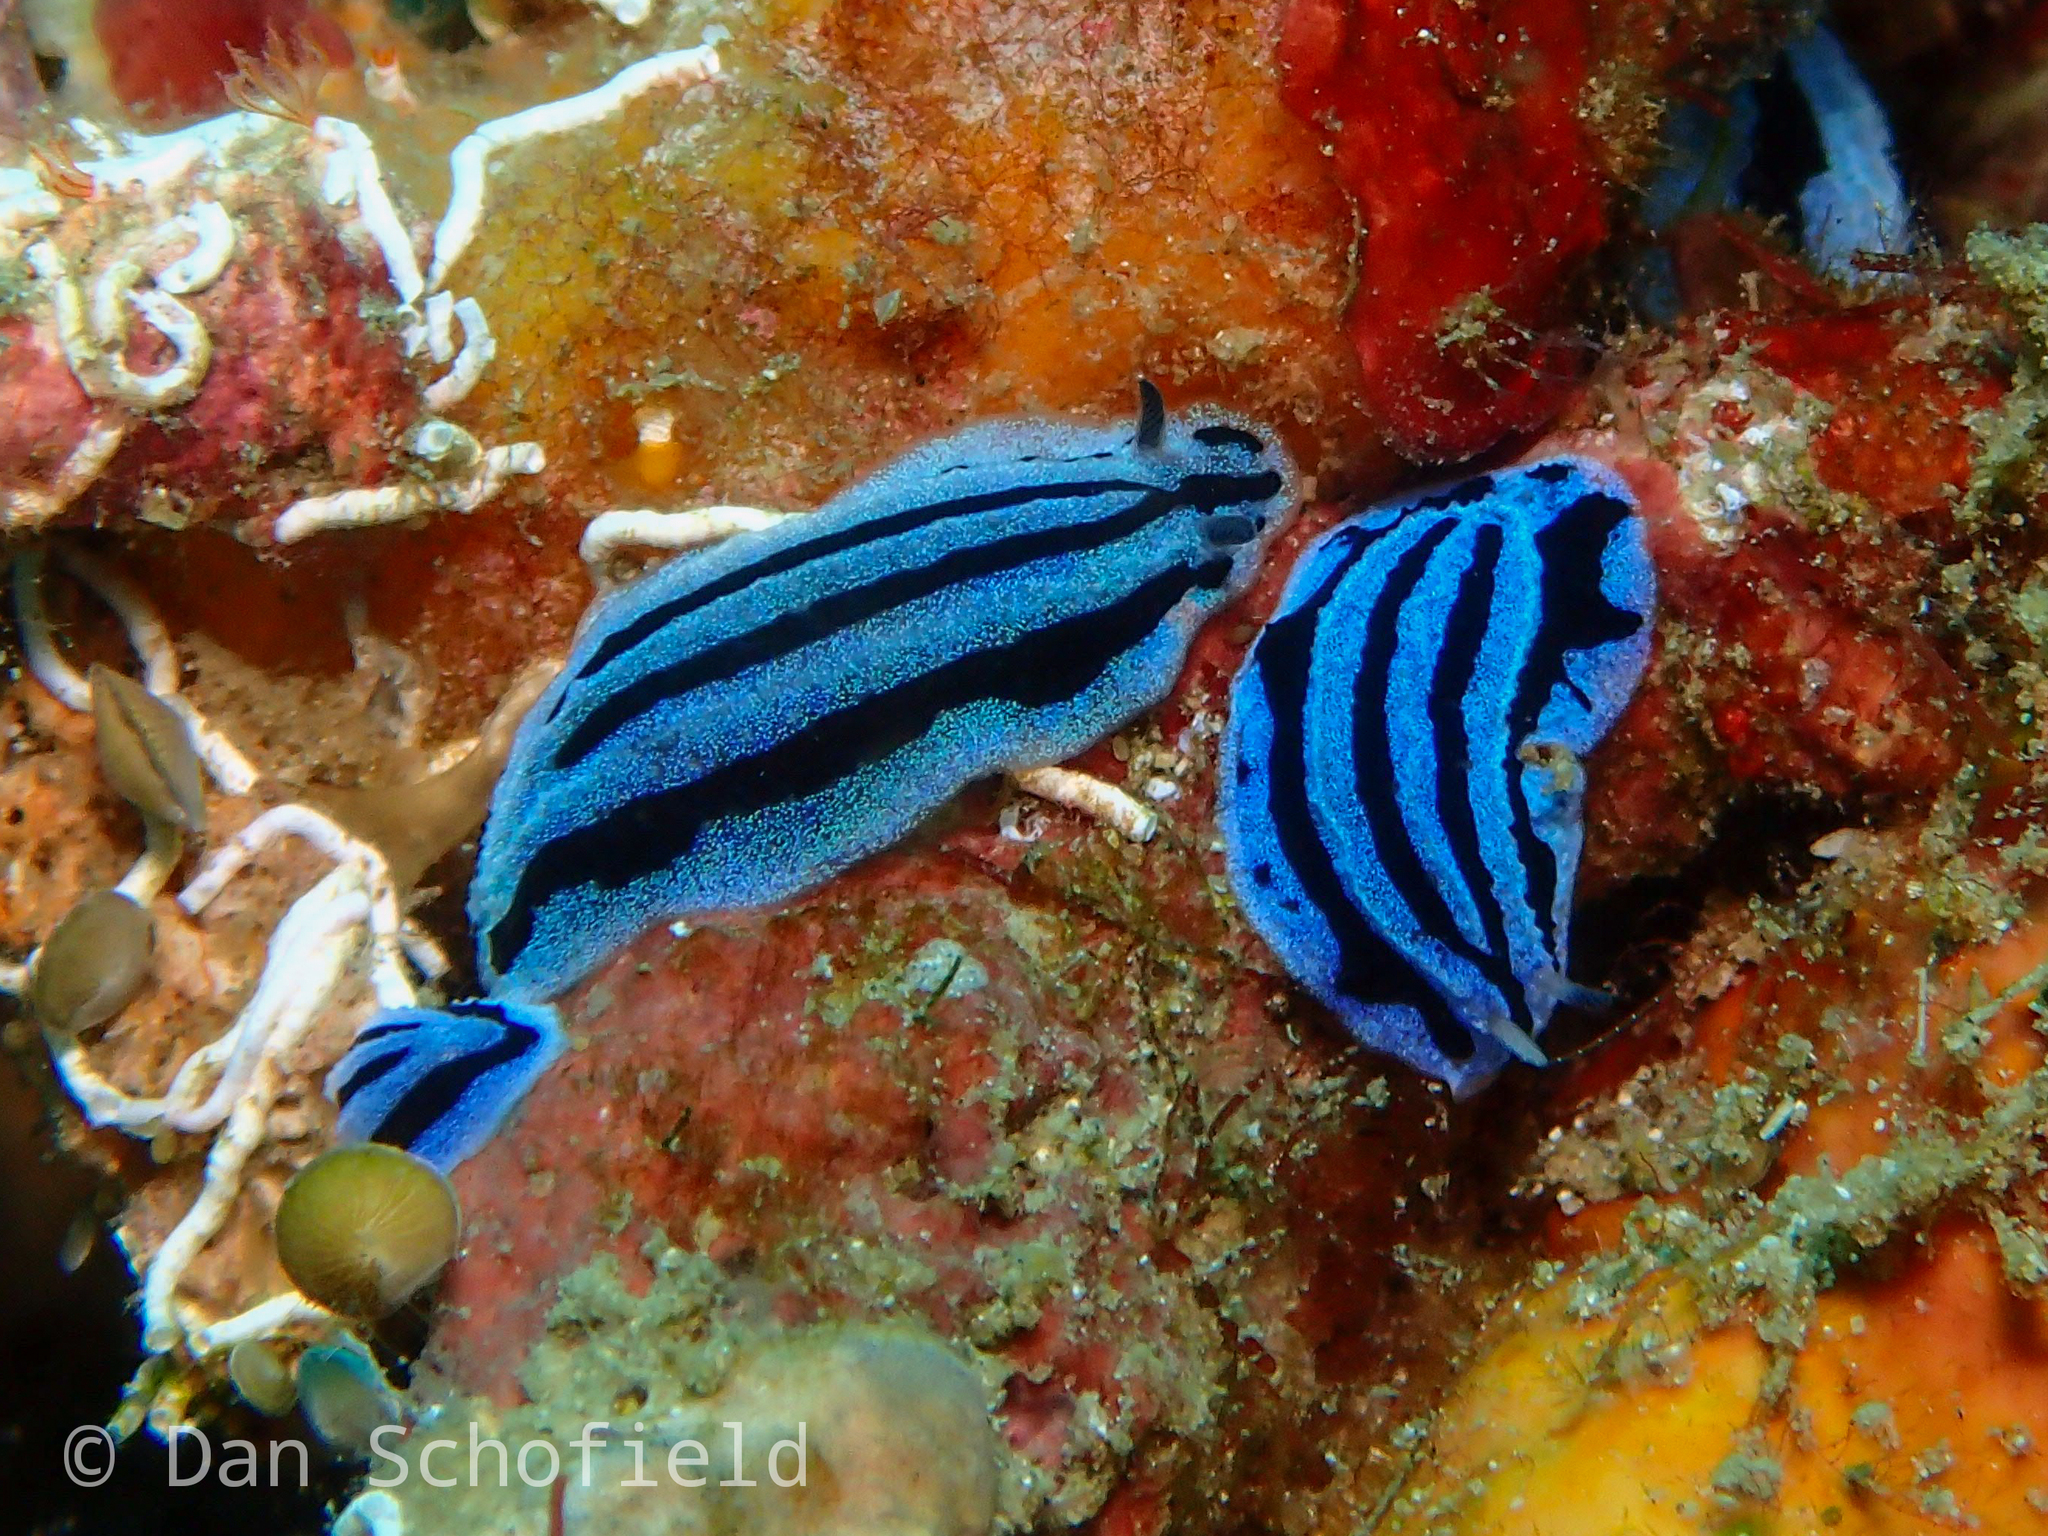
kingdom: Animalia
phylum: Mollusca
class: Gastropoda
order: Nudibranchia
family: Phyllidiidae
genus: Phyllidiopsis
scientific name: Phyllidiopsis annae
